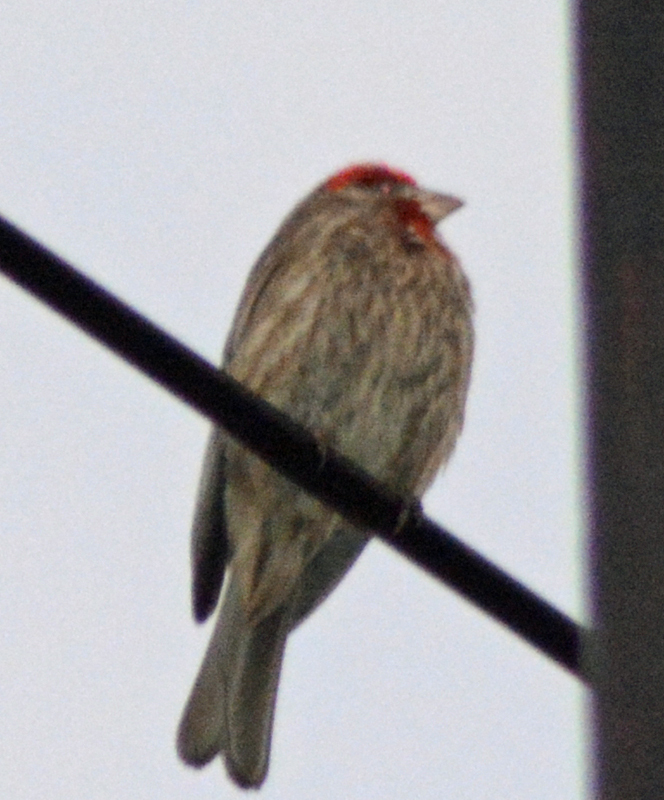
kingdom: Animalia
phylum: Chordata
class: Aves
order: Passeriformes
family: Fringillidae
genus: Haemorhous
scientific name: Haemorhous mexicanus
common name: House finch
